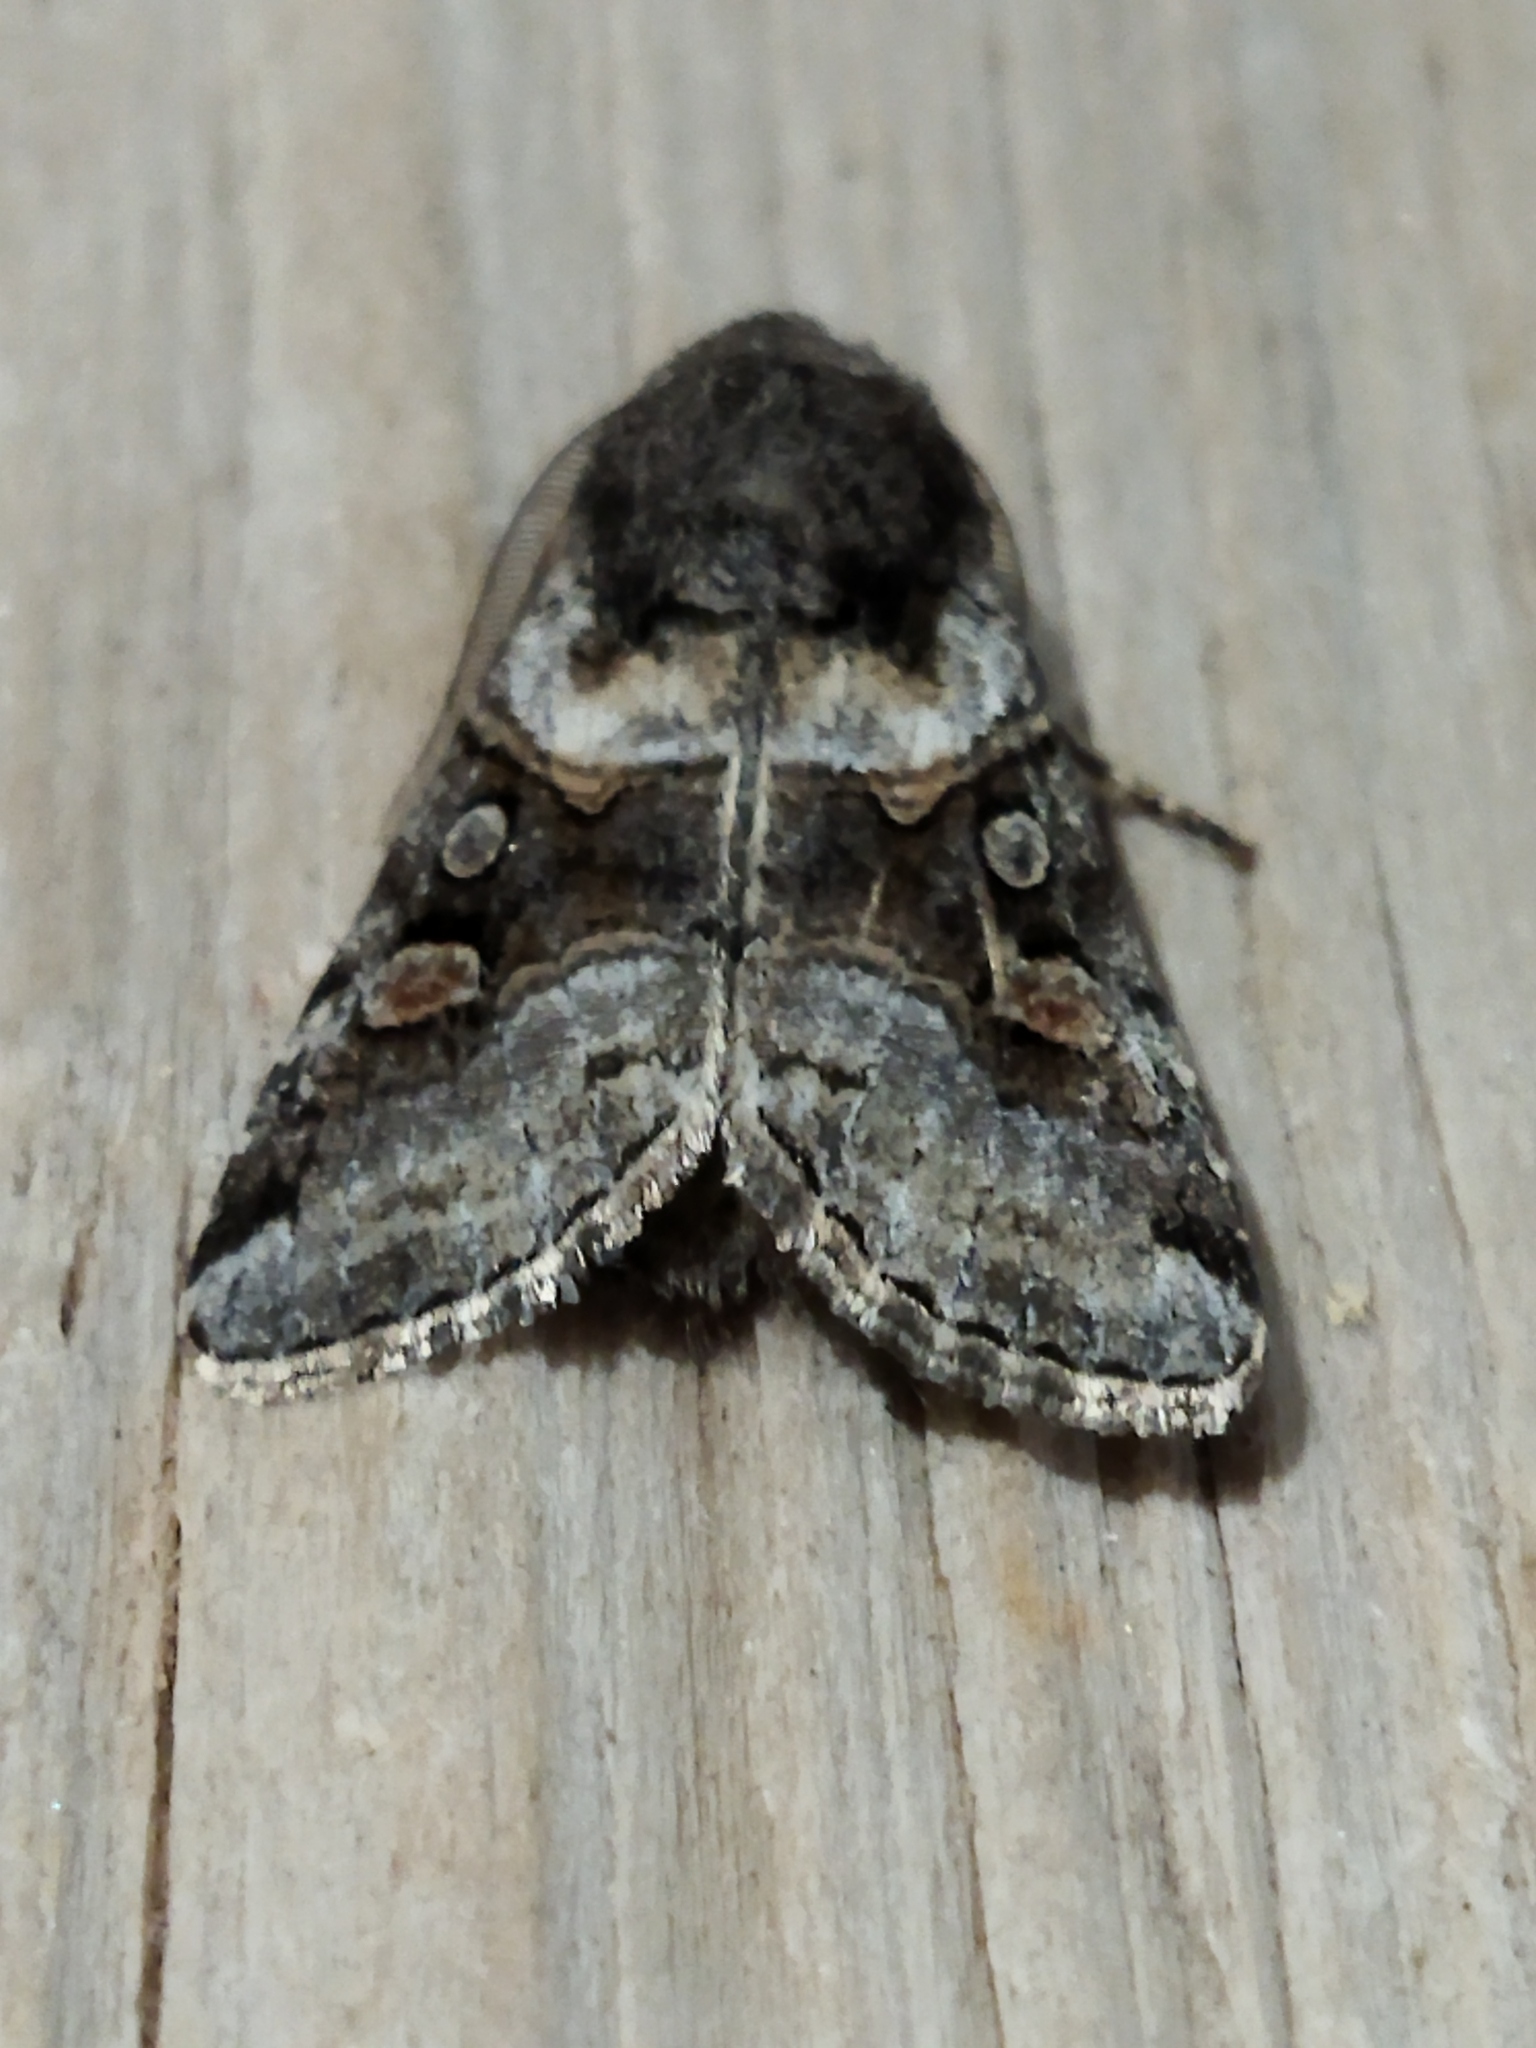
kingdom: Animalia
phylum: Arthropoda
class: Insecta
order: Lepidoptera
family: Noctuidae
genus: Cleoceris
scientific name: Cleoceris scoriacea
